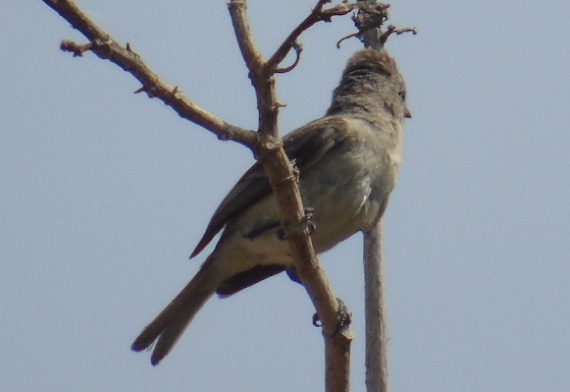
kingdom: Animalia
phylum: Chordata
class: Aves
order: Passeriformes
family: Tyrannidae
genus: Camptostoma
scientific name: Camptostoma imberbe
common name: Northern beardless-tyrannulet
